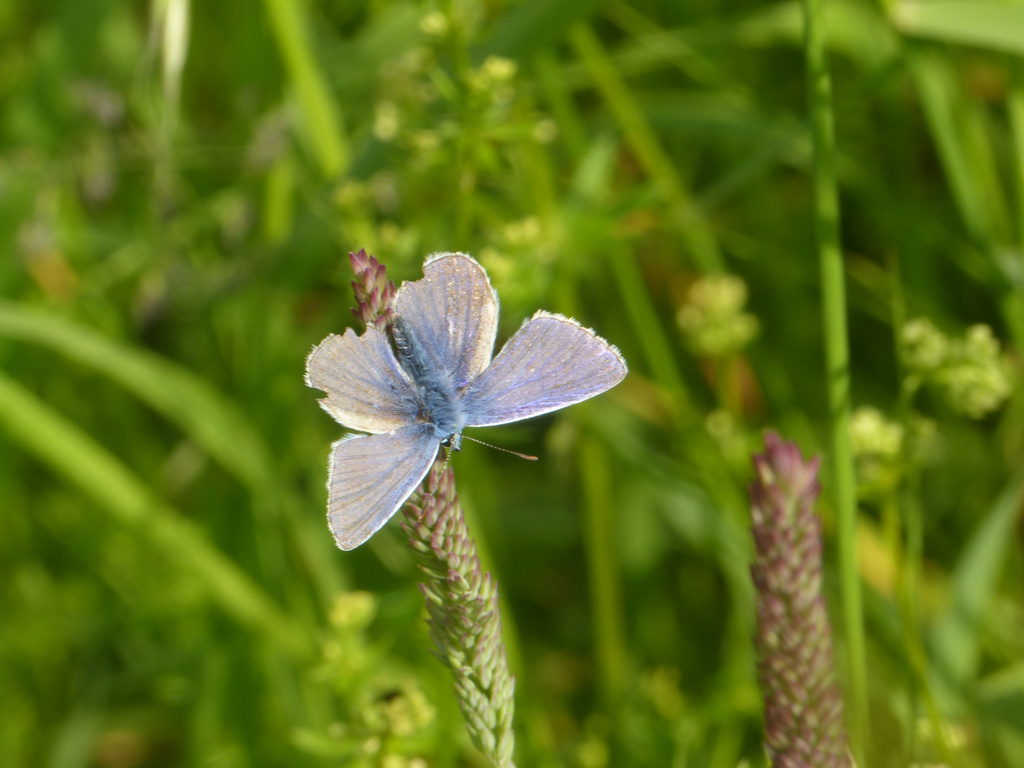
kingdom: Animalia
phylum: Arthropoda
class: Insecta
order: Lepidoptera
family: Lycaenidae
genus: Polyommatus
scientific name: Polyommatus icarus
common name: Common blue
